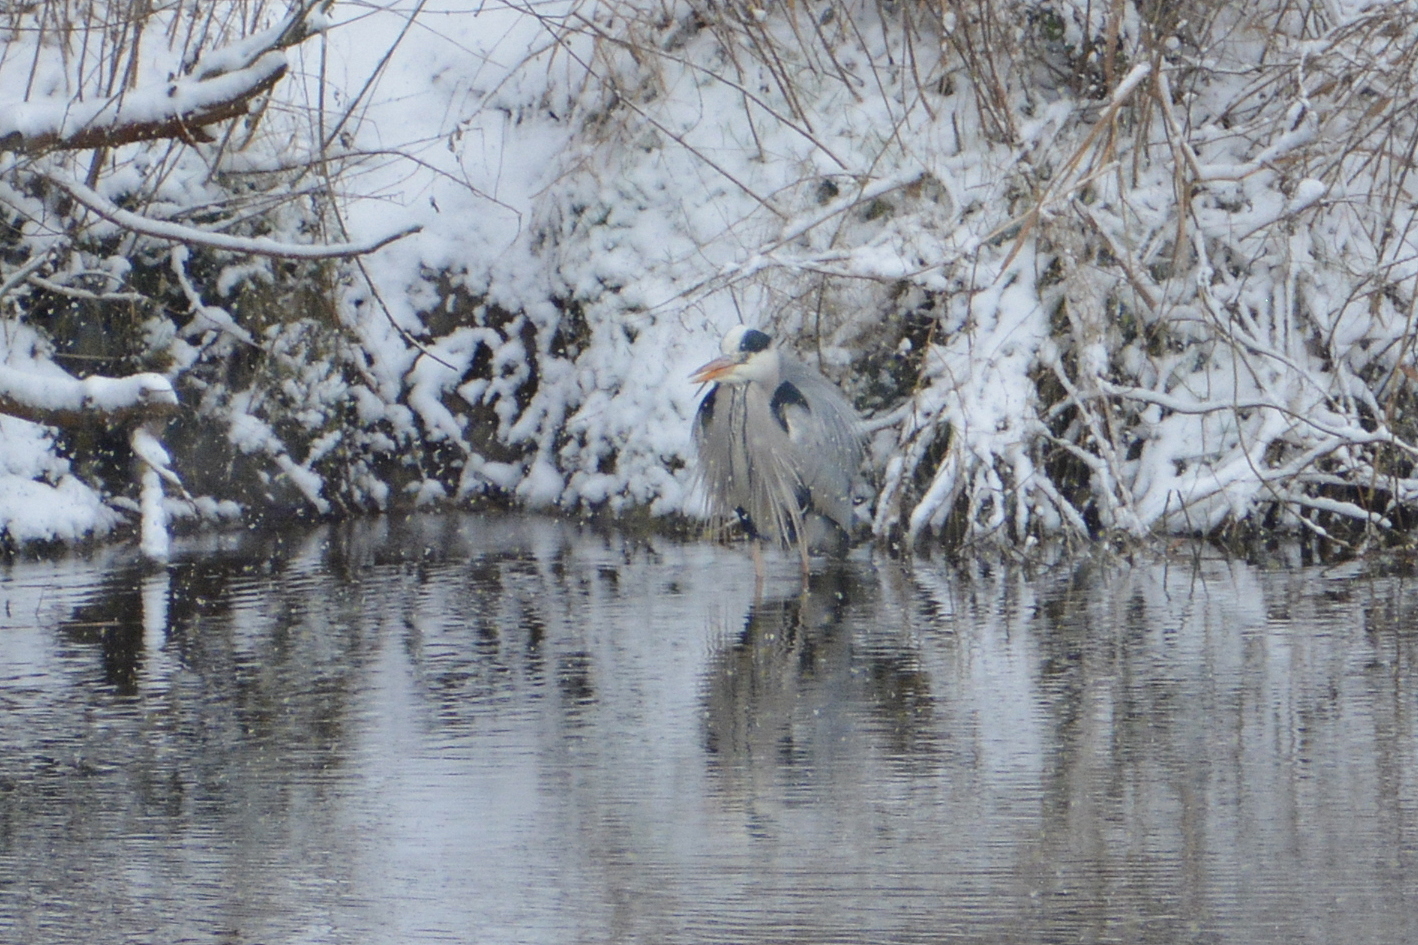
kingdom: Animalia
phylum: Chordata
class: Aves
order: Pelecaniformes
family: Ardeidae
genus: Ardea
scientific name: Ardea cinerea
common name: Grey heron
